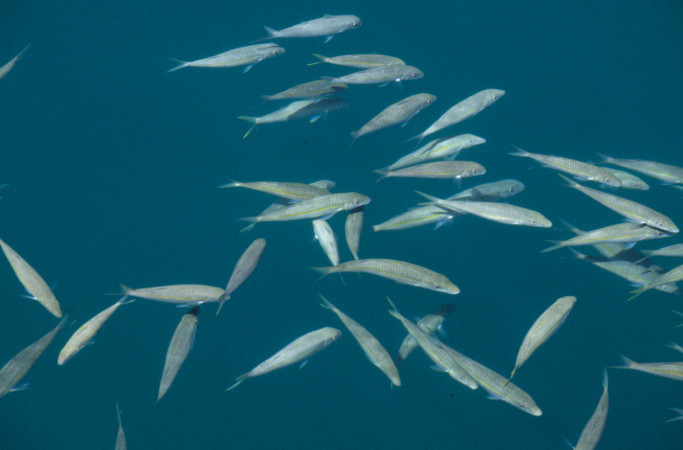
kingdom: Animalia
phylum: Chordata
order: Perciformes
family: Mullidae
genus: Mulloidichthys
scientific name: Mulloidichthys flavolineatus
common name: Yellowstripe goatfish
